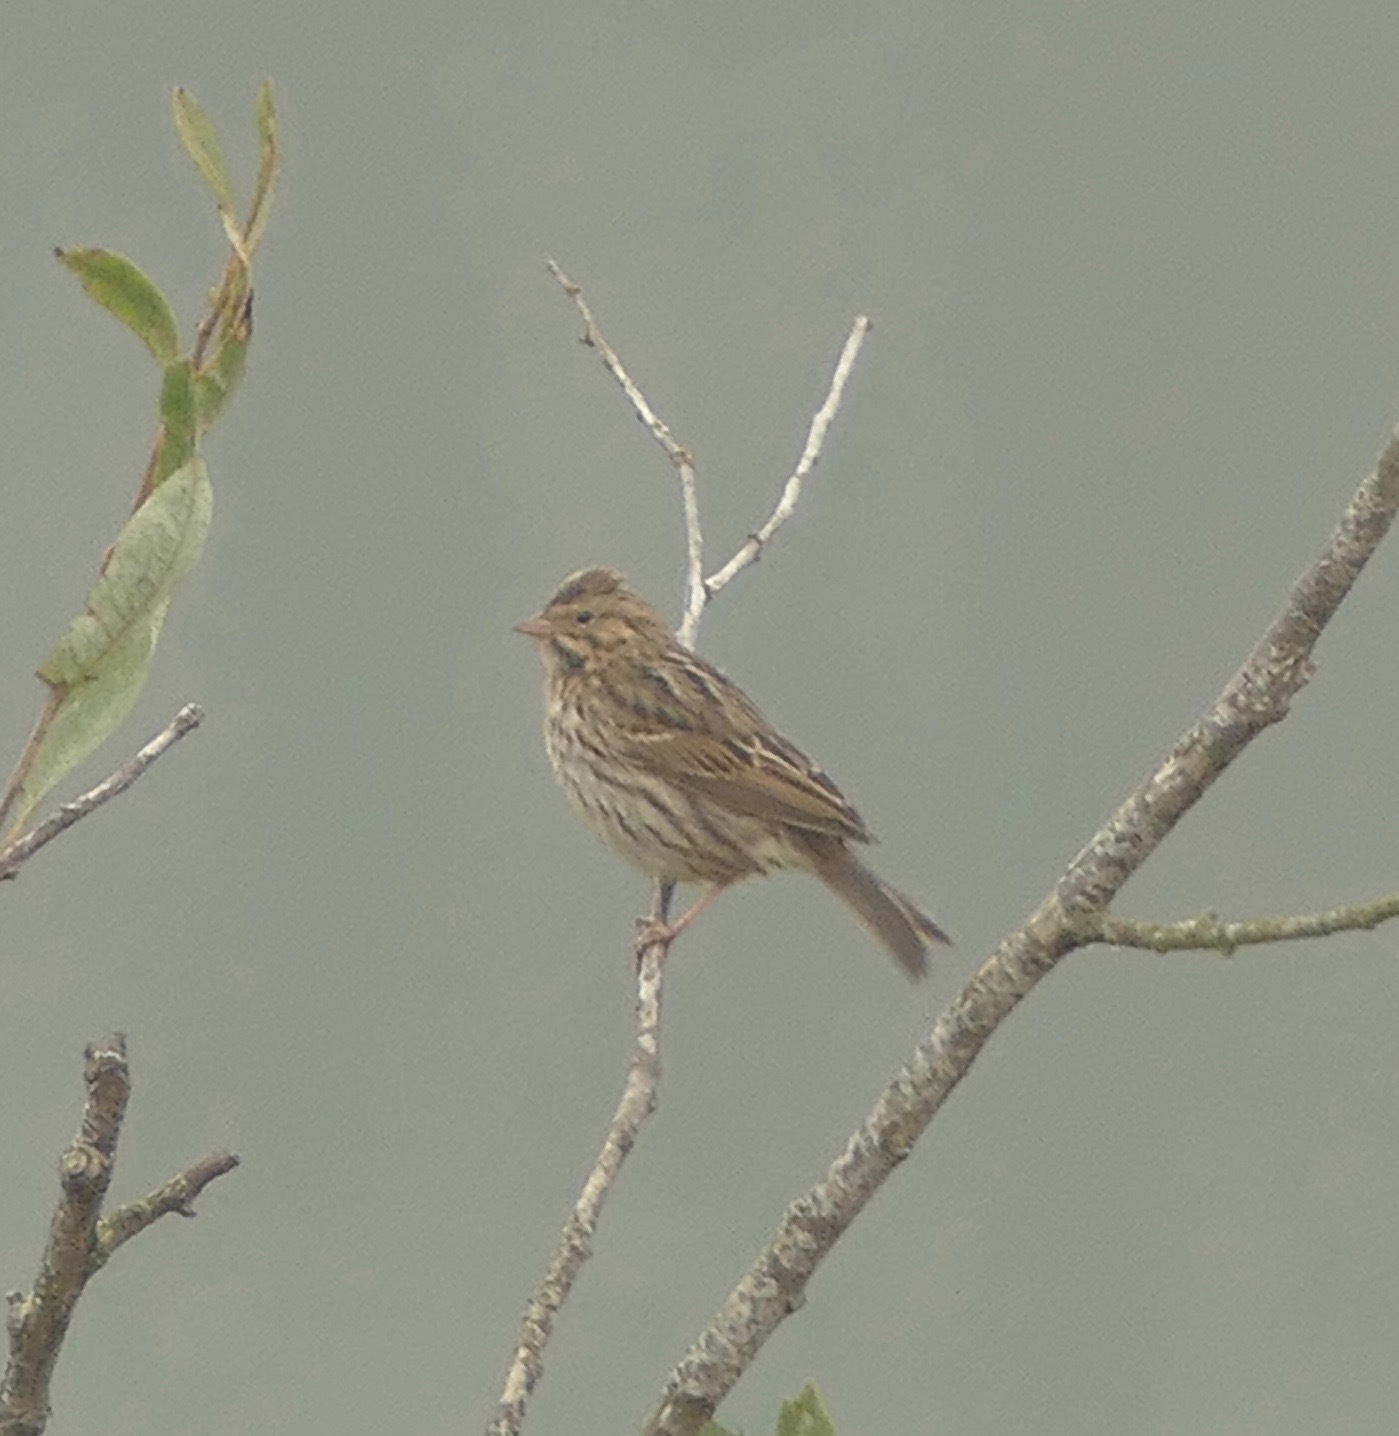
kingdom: Animalia
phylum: Chordata
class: Aves
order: Passeriformes
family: Passerellidae
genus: Passerculus
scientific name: Passerculus sandwichensis
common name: Savannah sparrow
